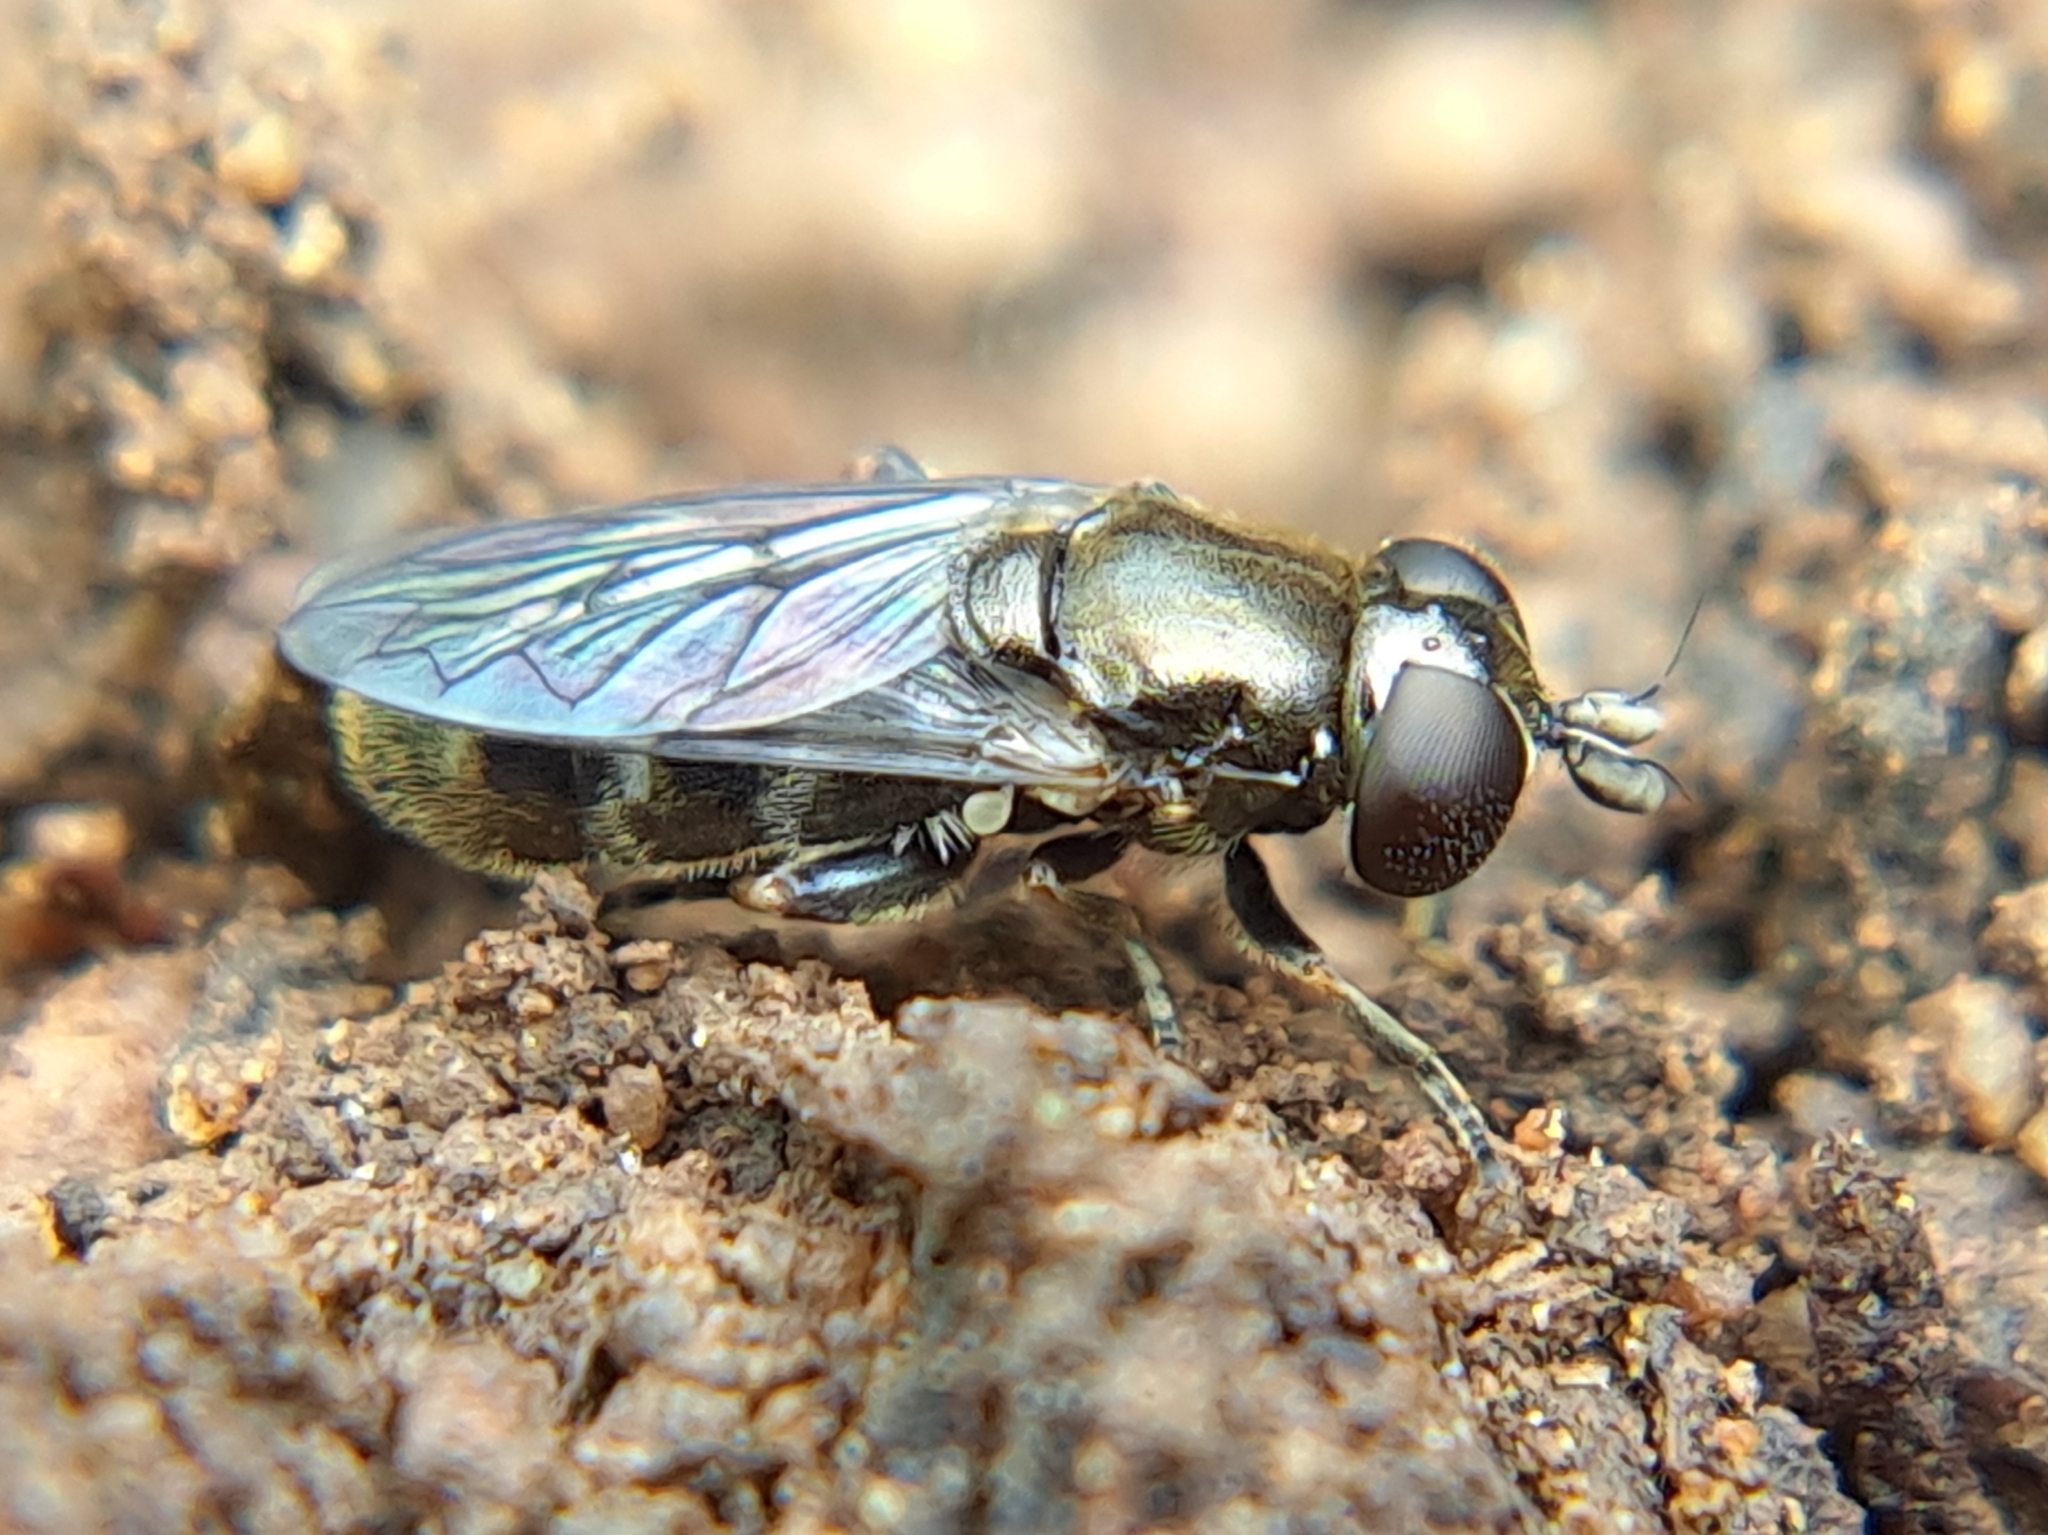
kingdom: Animalia
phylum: Arthropoda
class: Insecta
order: Diptera
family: Syrphidae
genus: Eumerus
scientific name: Eumerus
